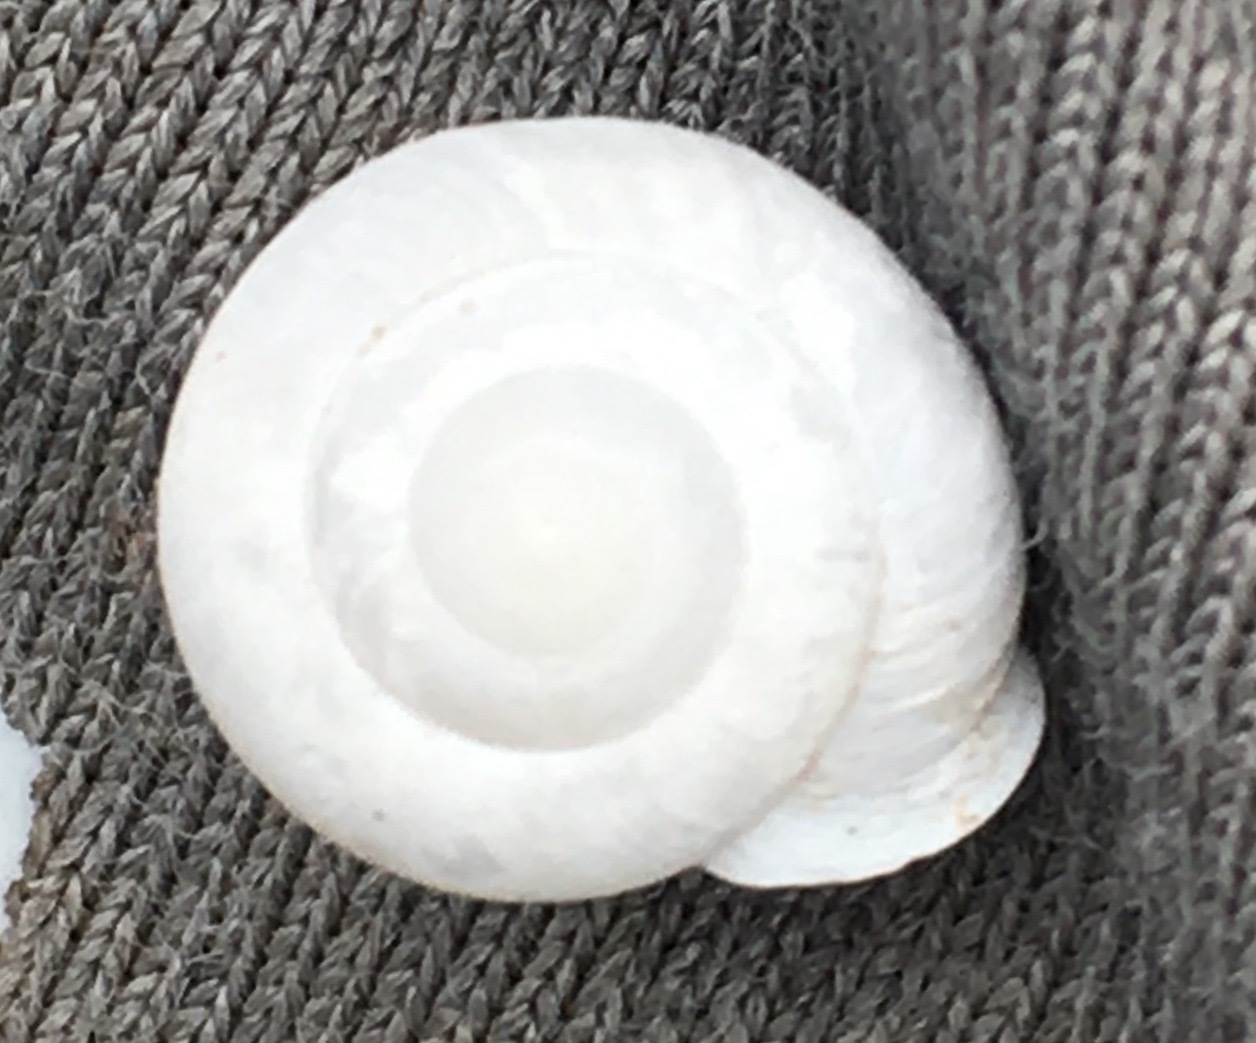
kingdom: Animalia
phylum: Mollusca
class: Gastropoda
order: Stylommatophora
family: Xanthonychidae
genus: Micrarionta
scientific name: Micrarionta gabbii
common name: Gabb's snail
